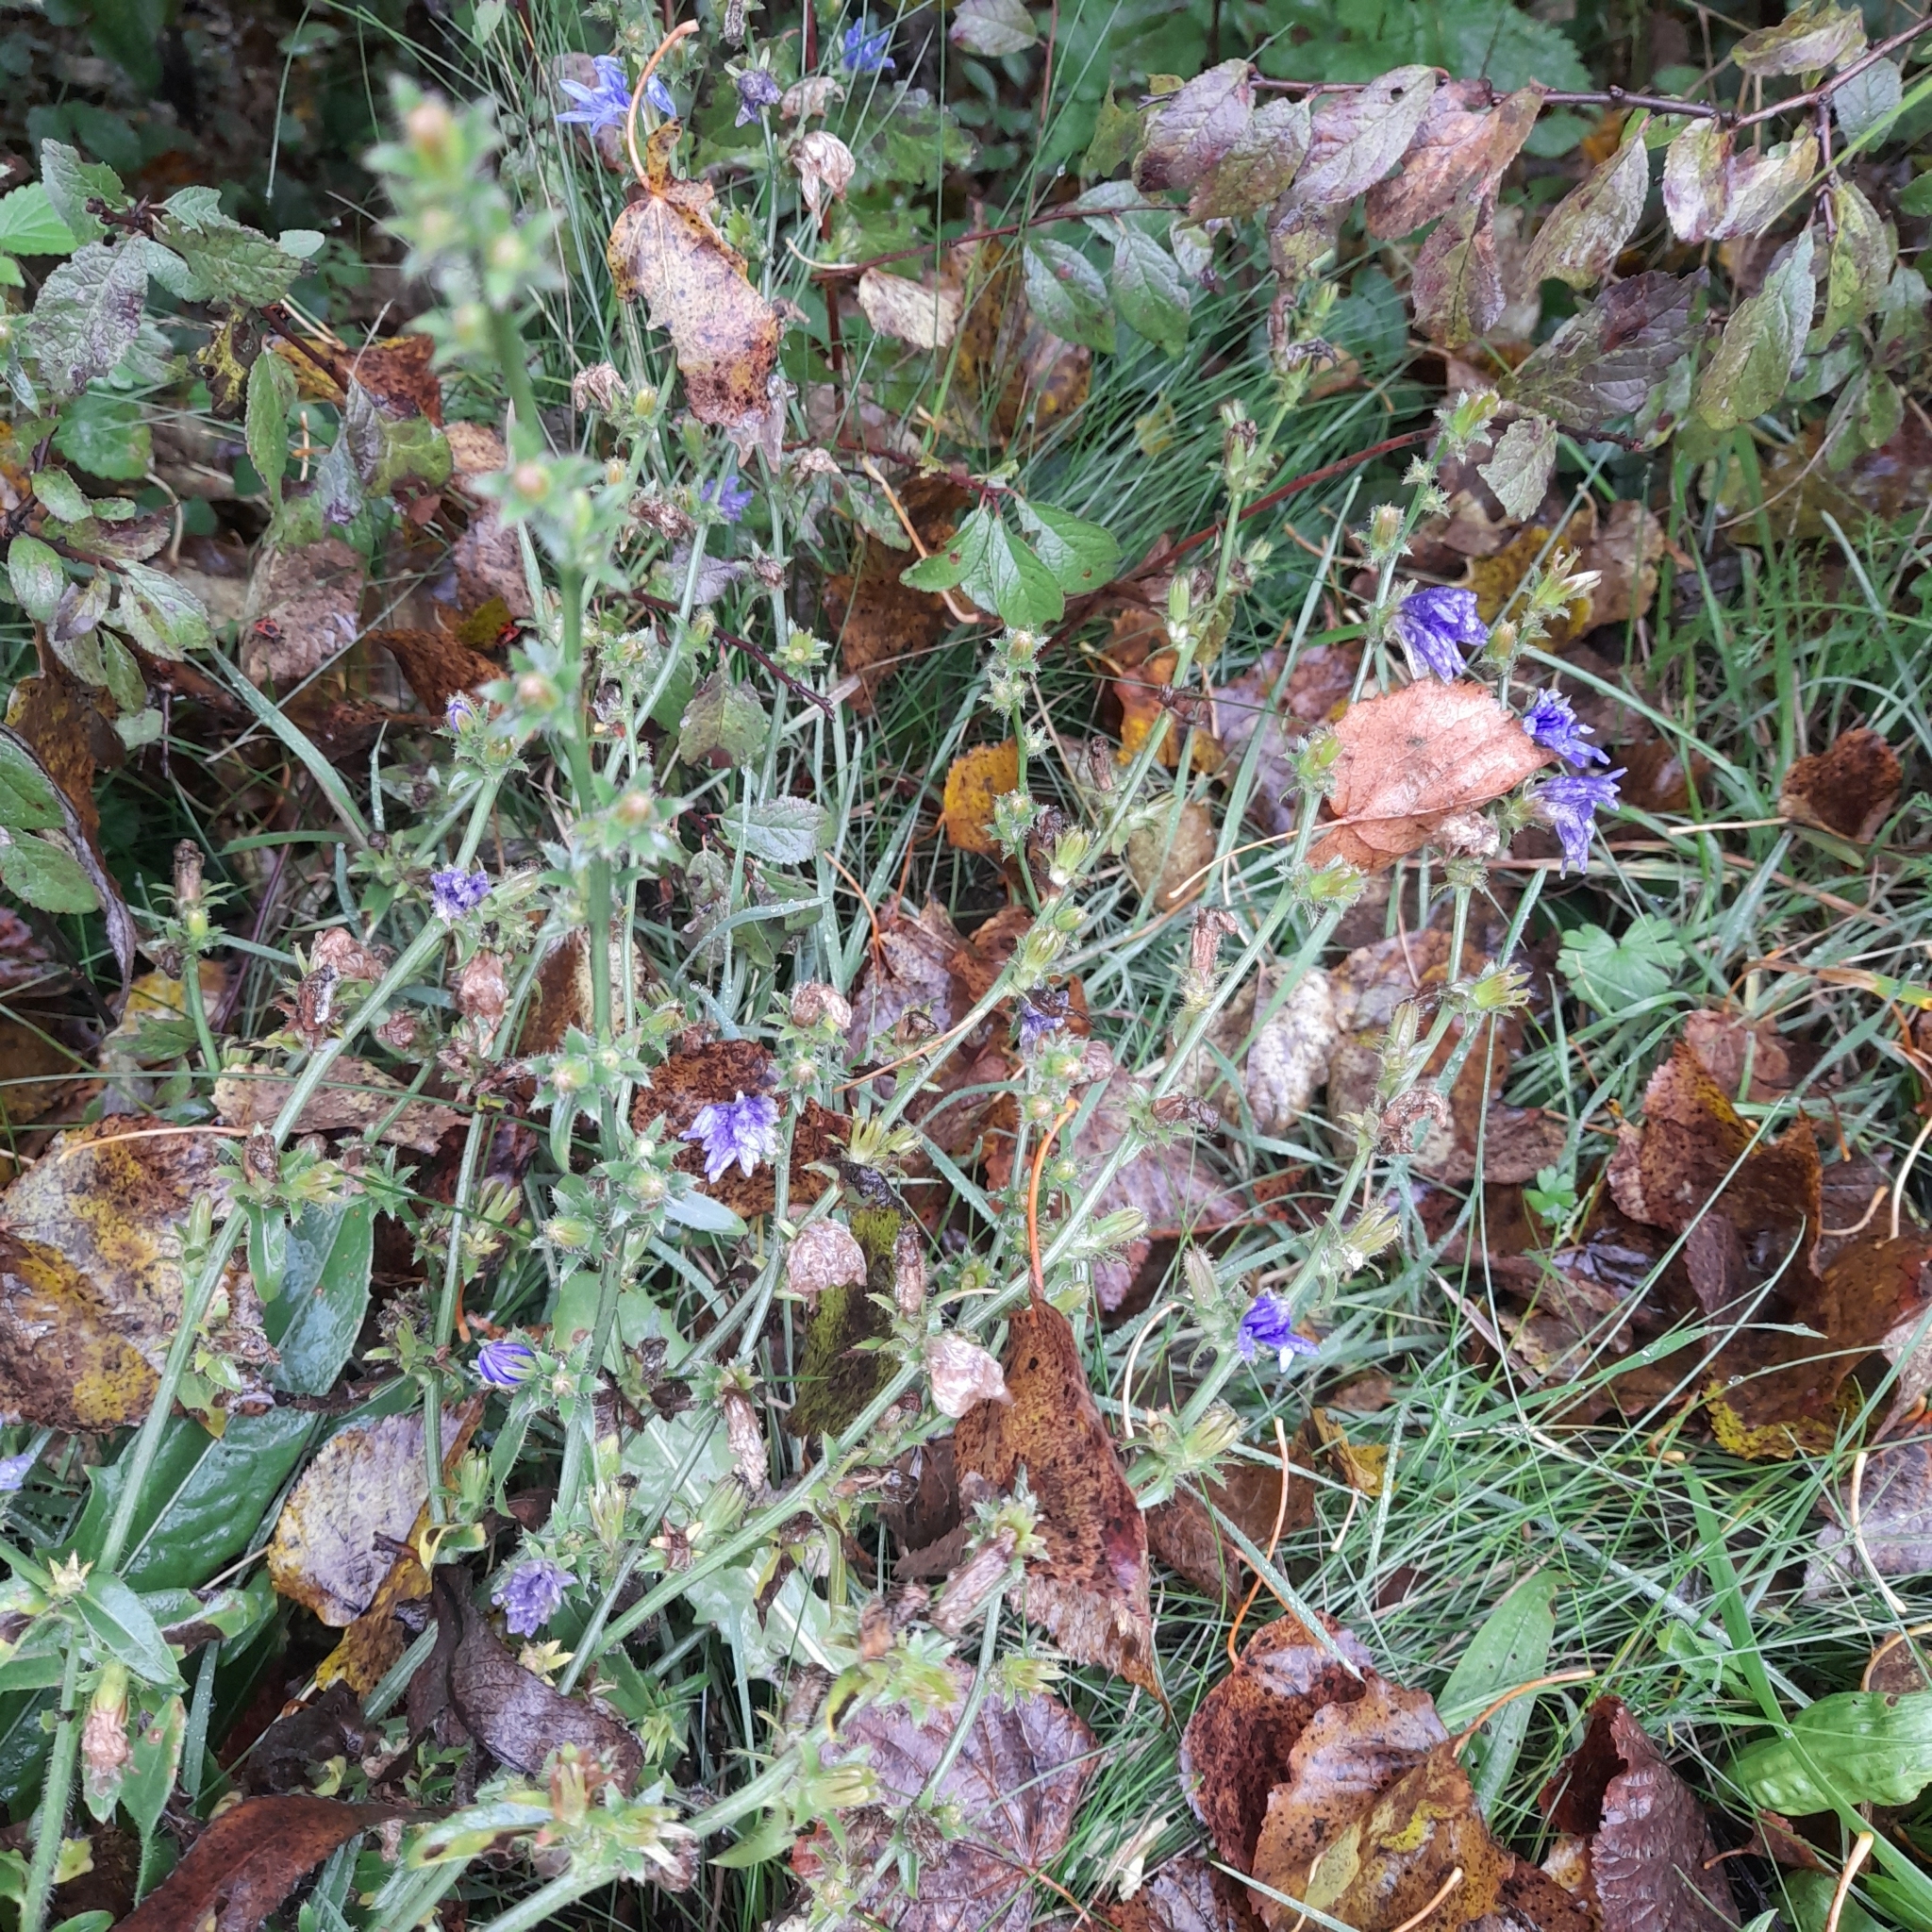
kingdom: Plantae
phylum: Tracheophyta
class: Magnoliopsida
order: Asterales
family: Asteraceae
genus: Cichorium
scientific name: Cichorium intybus
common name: Chicory
